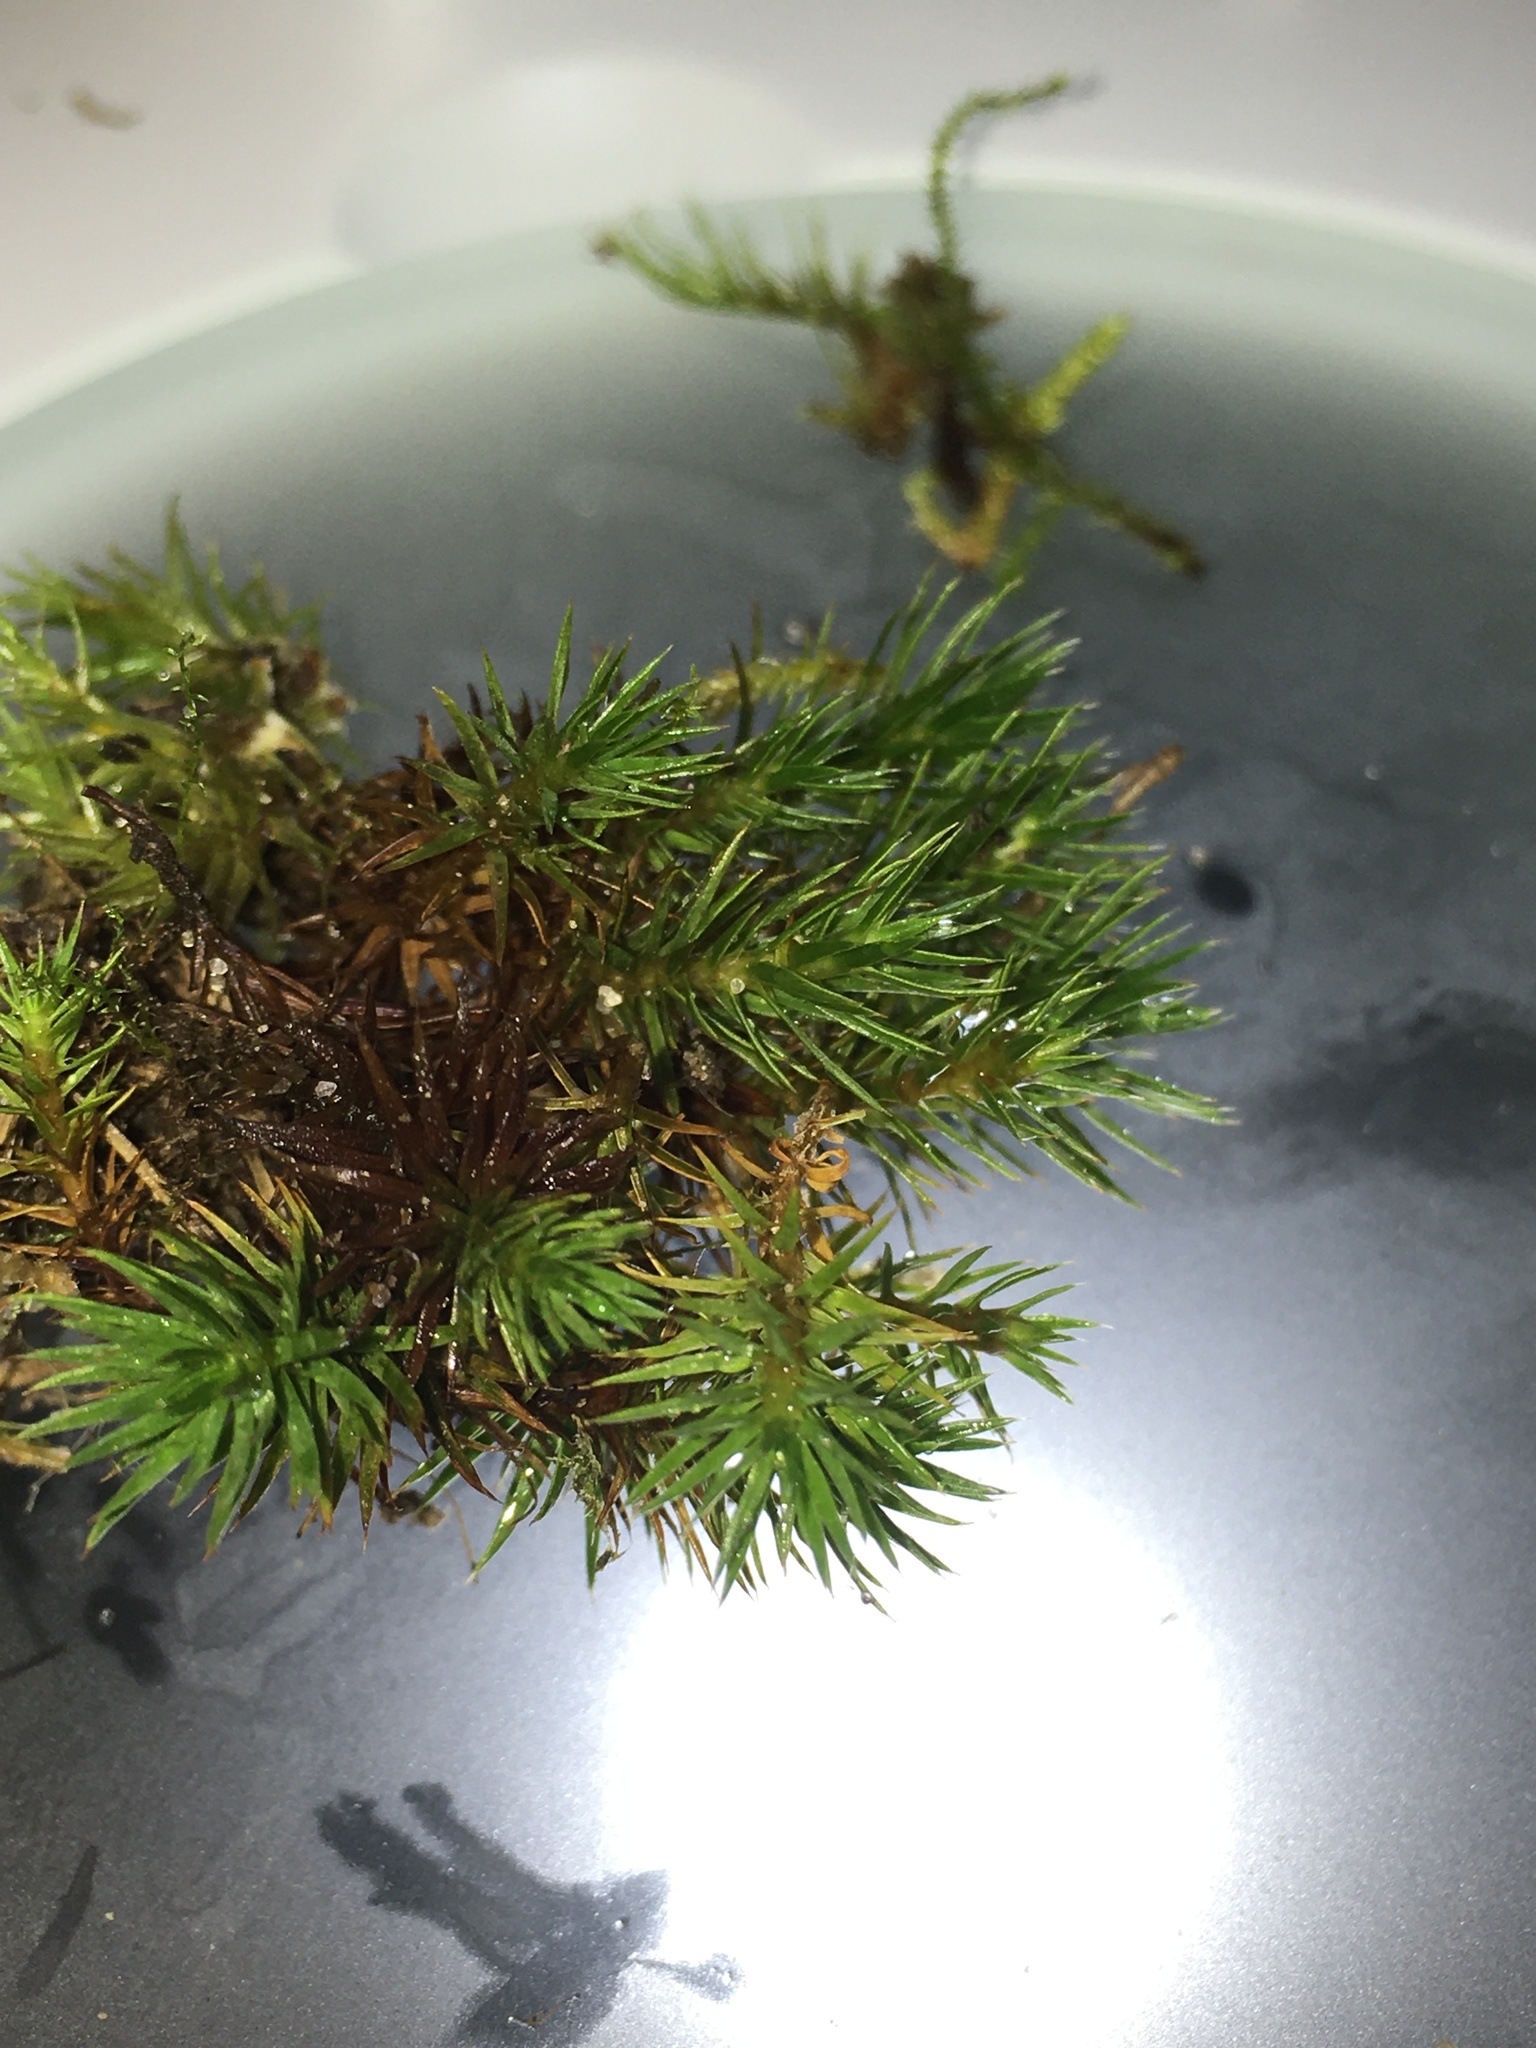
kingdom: Plantae
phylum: Bryophyta
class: Polytrichopsida
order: Polytrichales
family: Polytrichaceae
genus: Polytrichum
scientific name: Polytrichum juniperinum
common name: Juniper haircap moss
